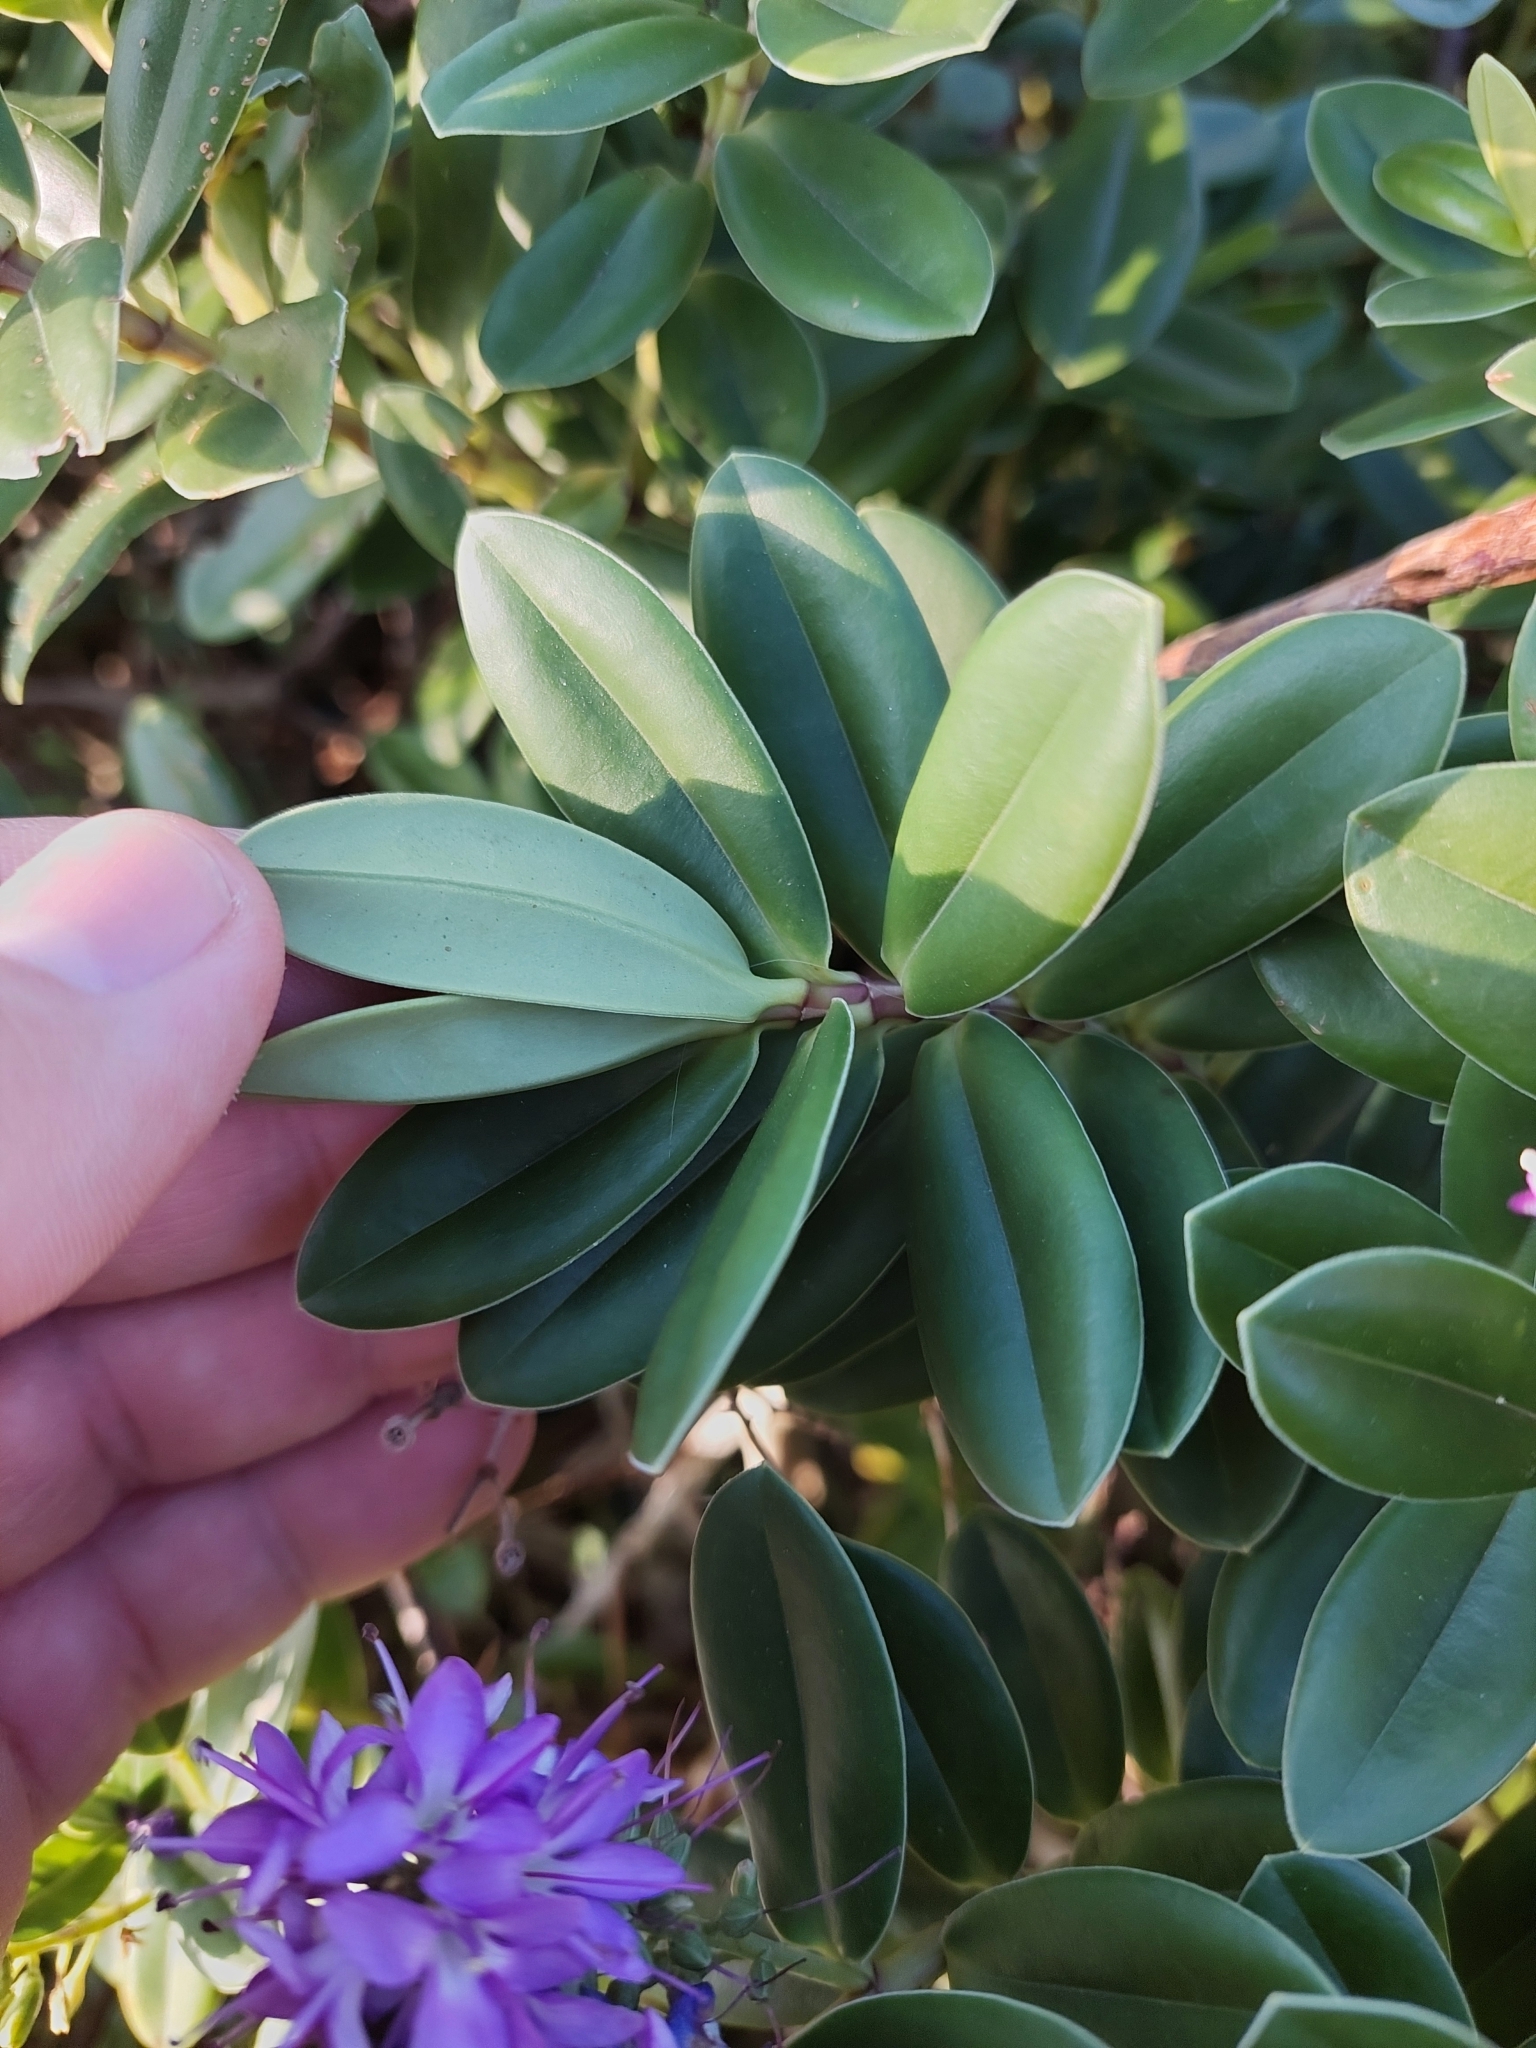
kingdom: Plantae
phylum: Tracheophyta
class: Magnoliopsida
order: Lamiales
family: Plantaginaceae
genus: Veronica
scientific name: Veronica franciscana
